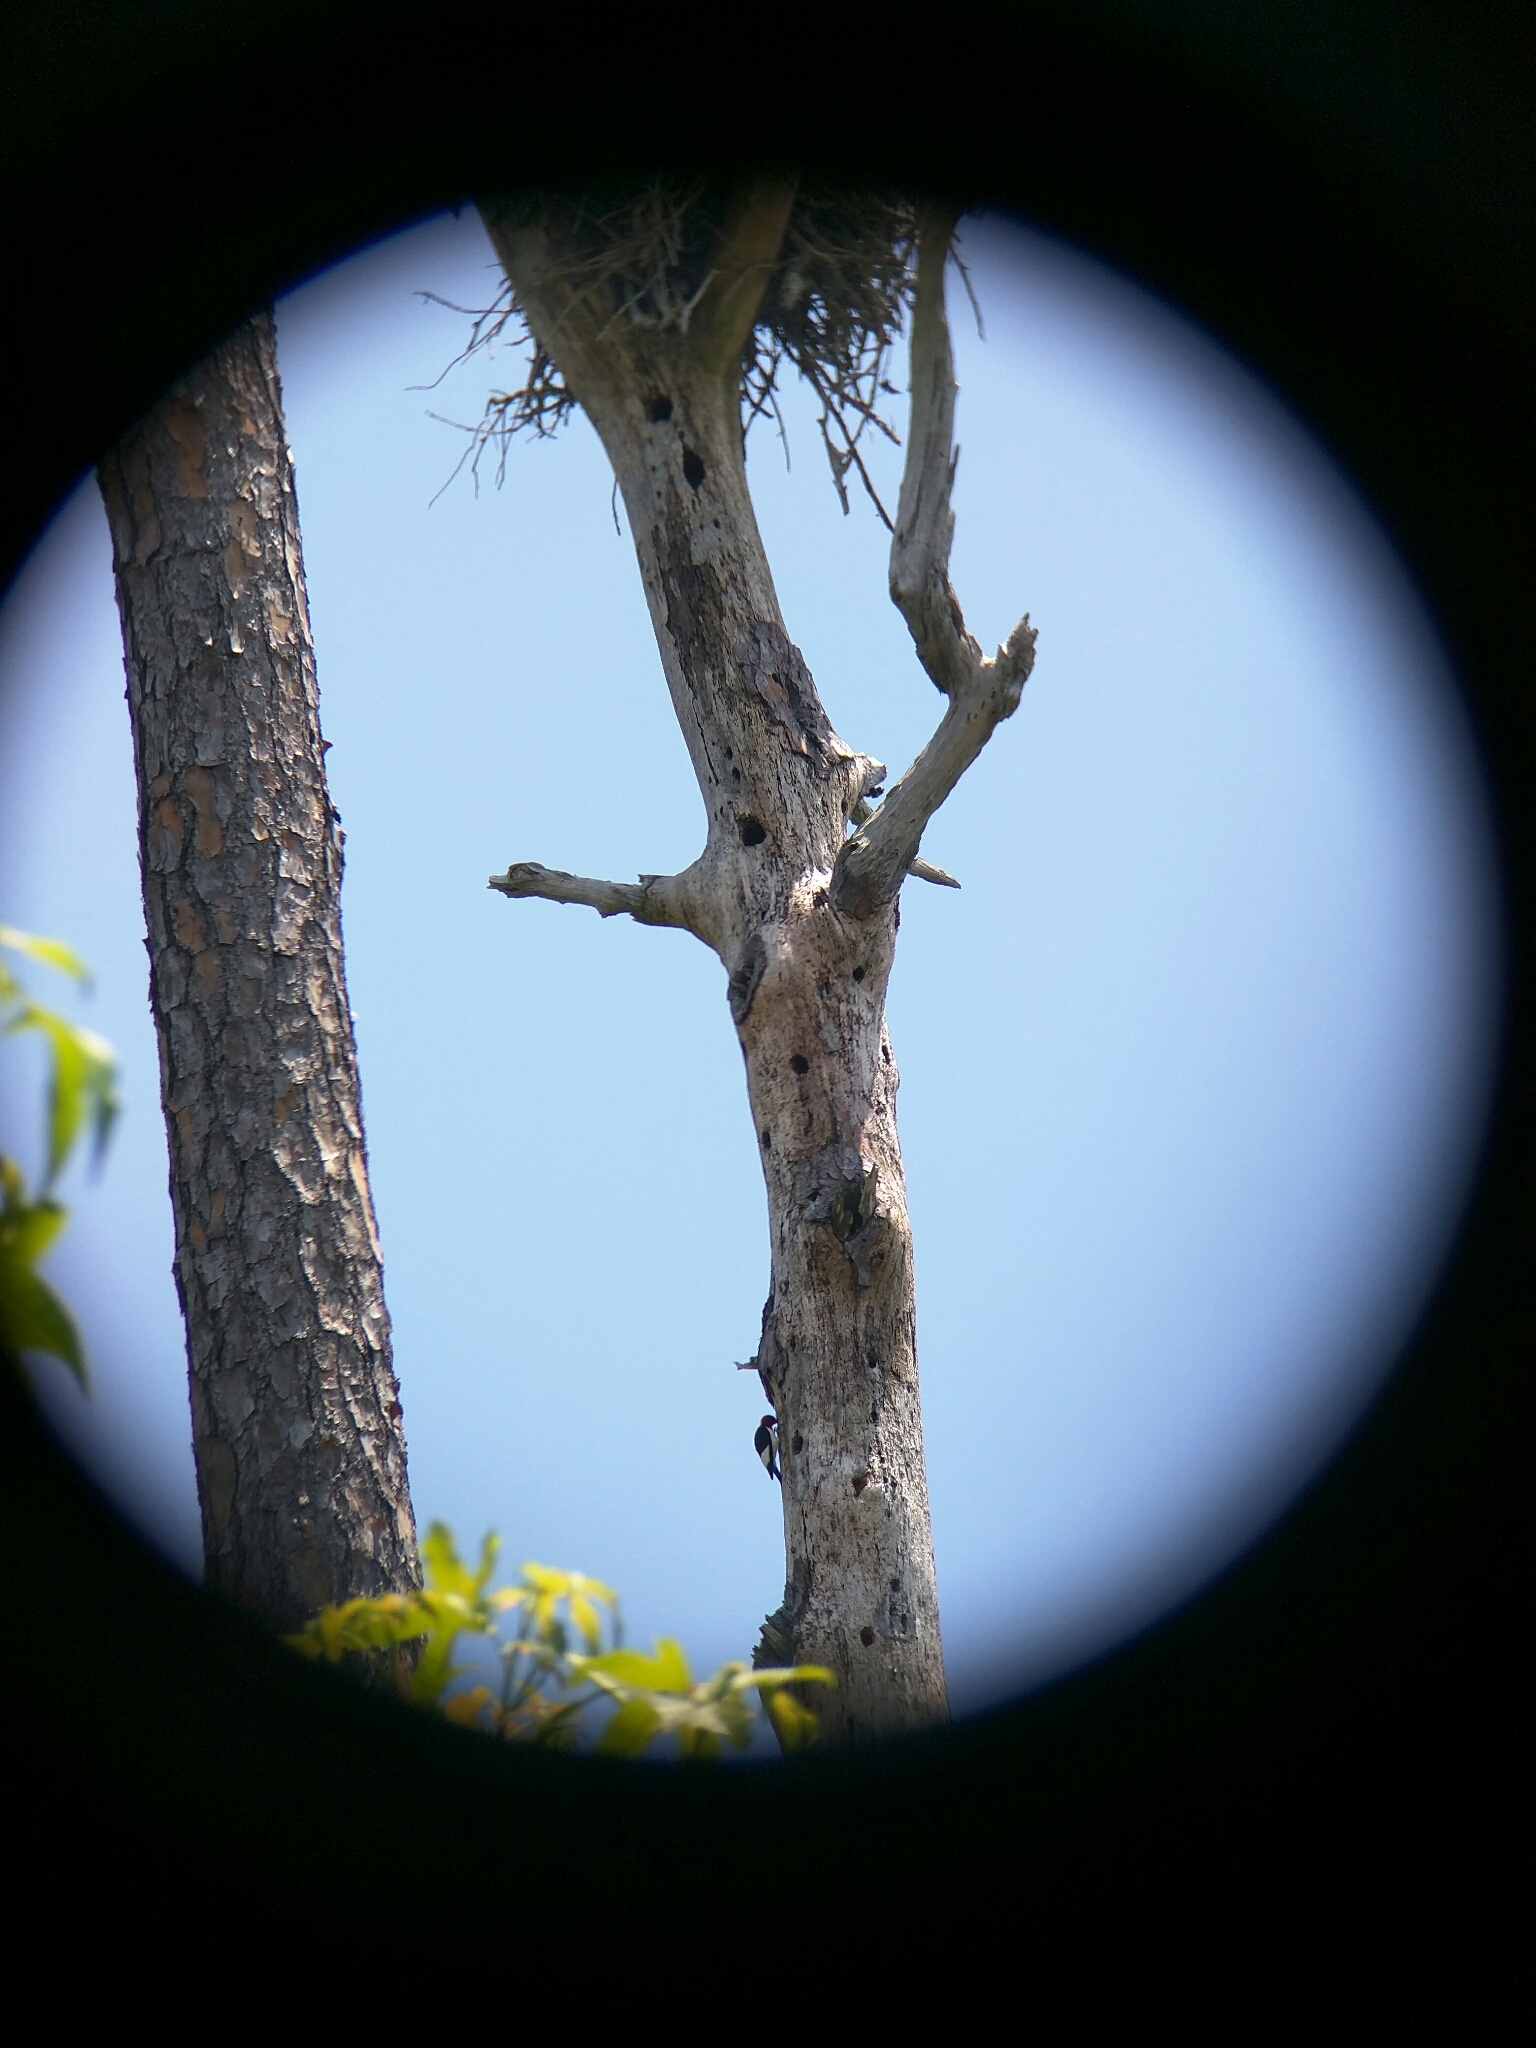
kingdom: Animalia
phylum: Chordata
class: Aves
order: Piciformes
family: Picidae
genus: Melanerpes
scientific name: Melanerpes erythrocephalus
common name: Red-headed woodpecker
